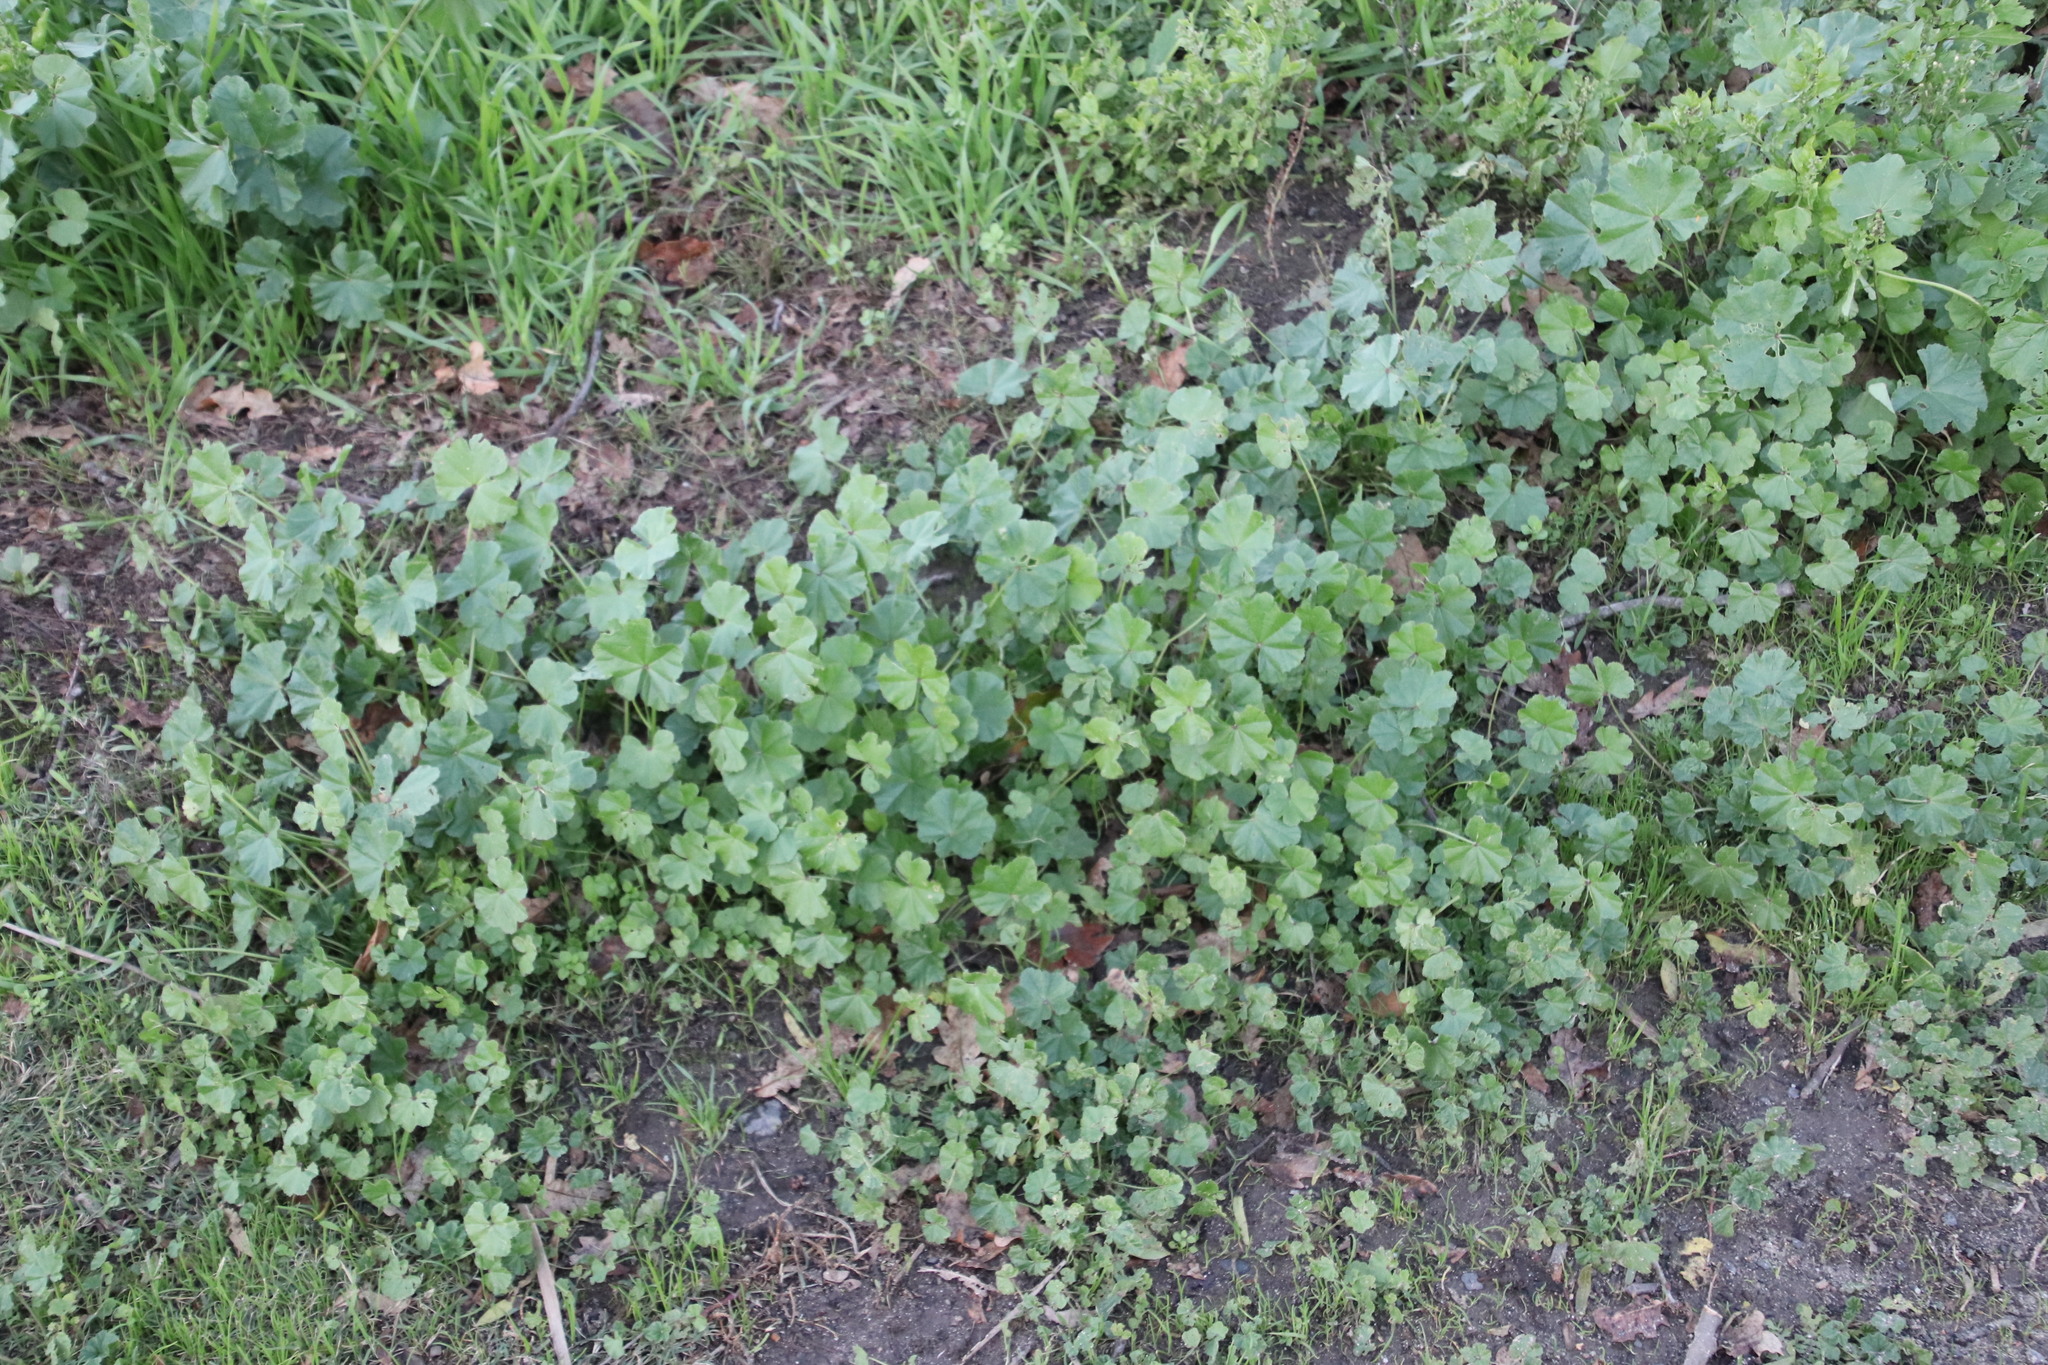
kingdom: Plantae
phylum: Tracheophyta
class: Magnoliopsida
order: Malvales
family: Malvaceae
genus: Malva
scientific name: Malva parviflora
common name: Least mallow
